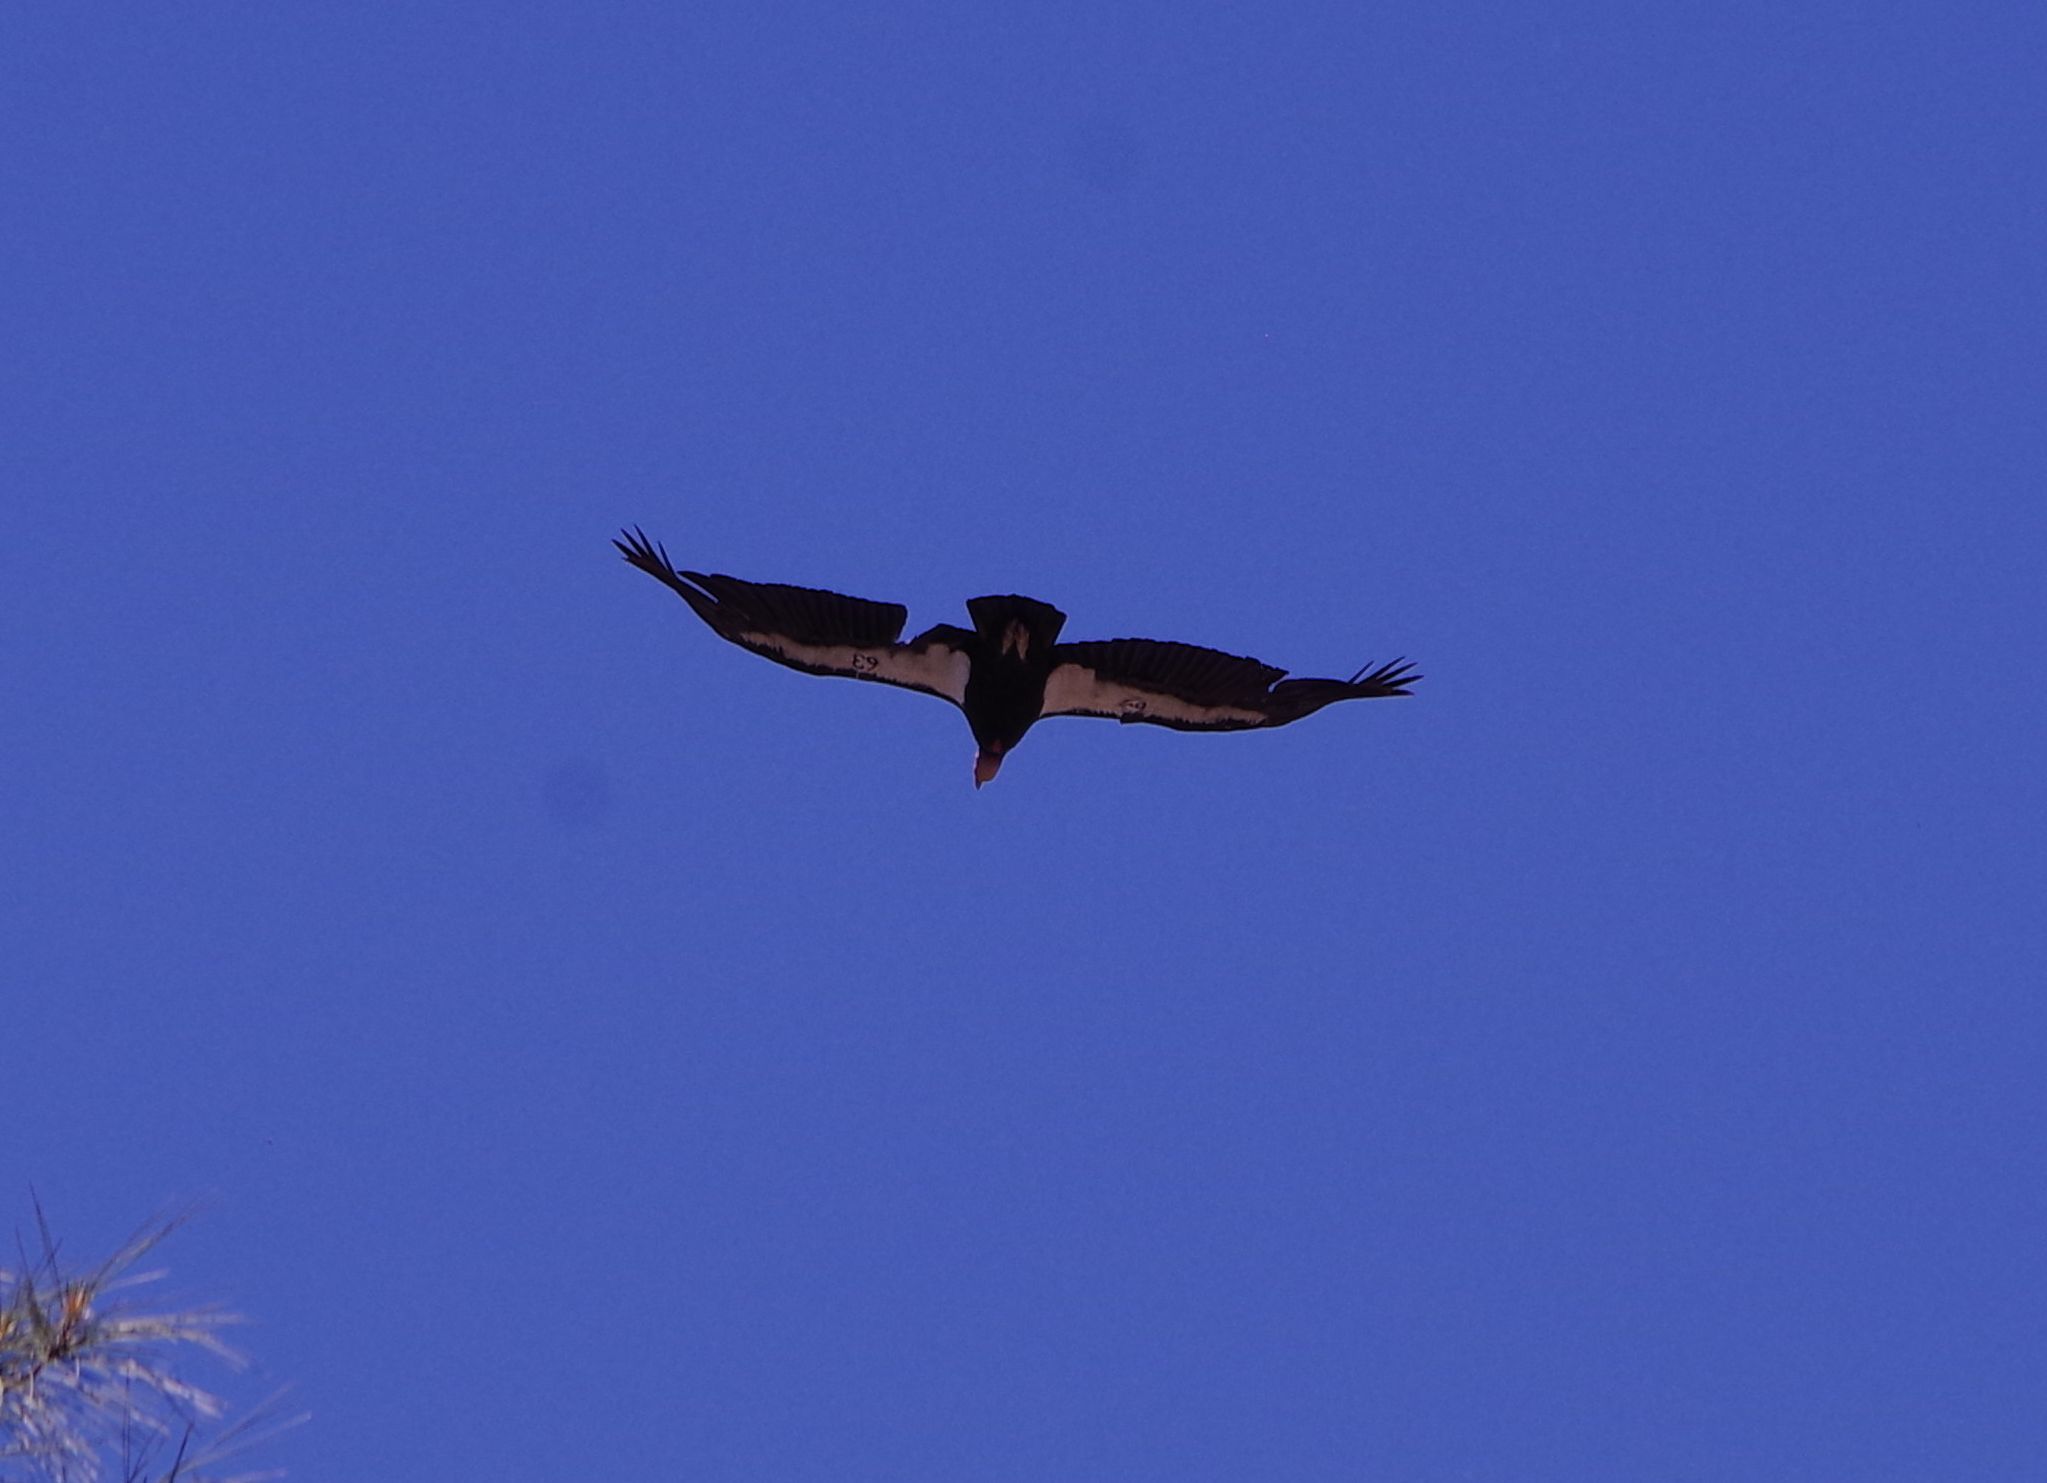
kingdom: Animalia
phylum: Chordata
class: Aves
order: Accipitriformes
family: Cathartidae
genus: Gymnogyps
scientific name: Gymnogyps californianus
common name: California condor
